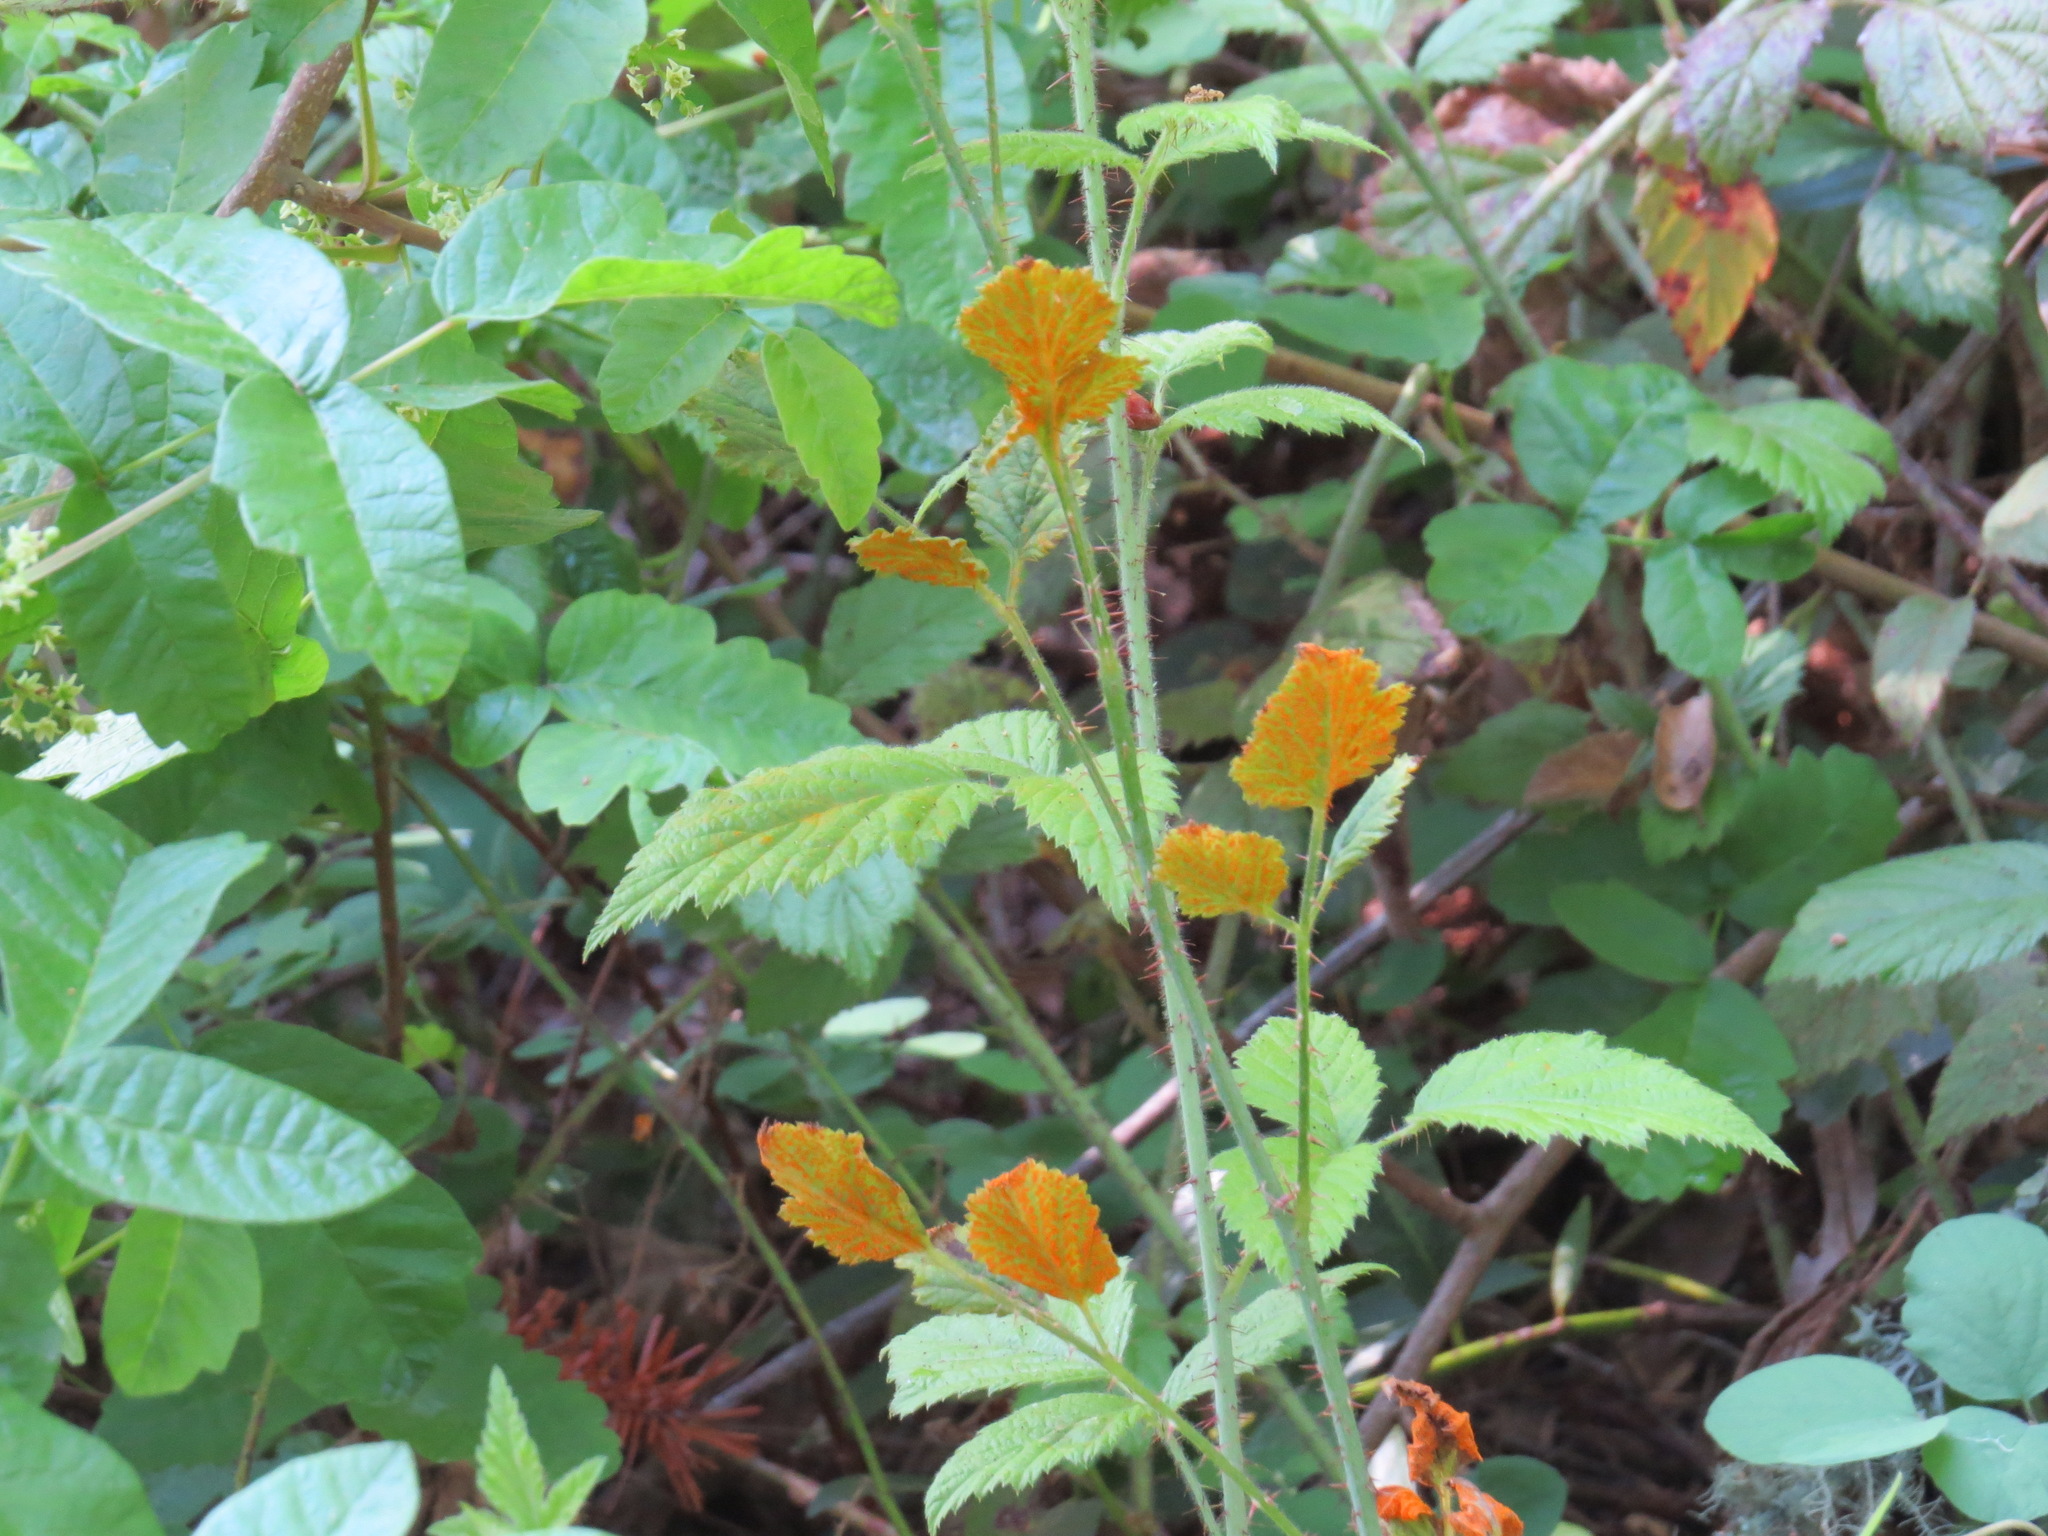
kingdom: Fungi
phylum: Basidiomycota
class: Pucciniomycetes
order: Pucciniales
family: Phragmidiaceae
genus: Arthuriomyces
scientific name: Arthuriomyces peckianus
